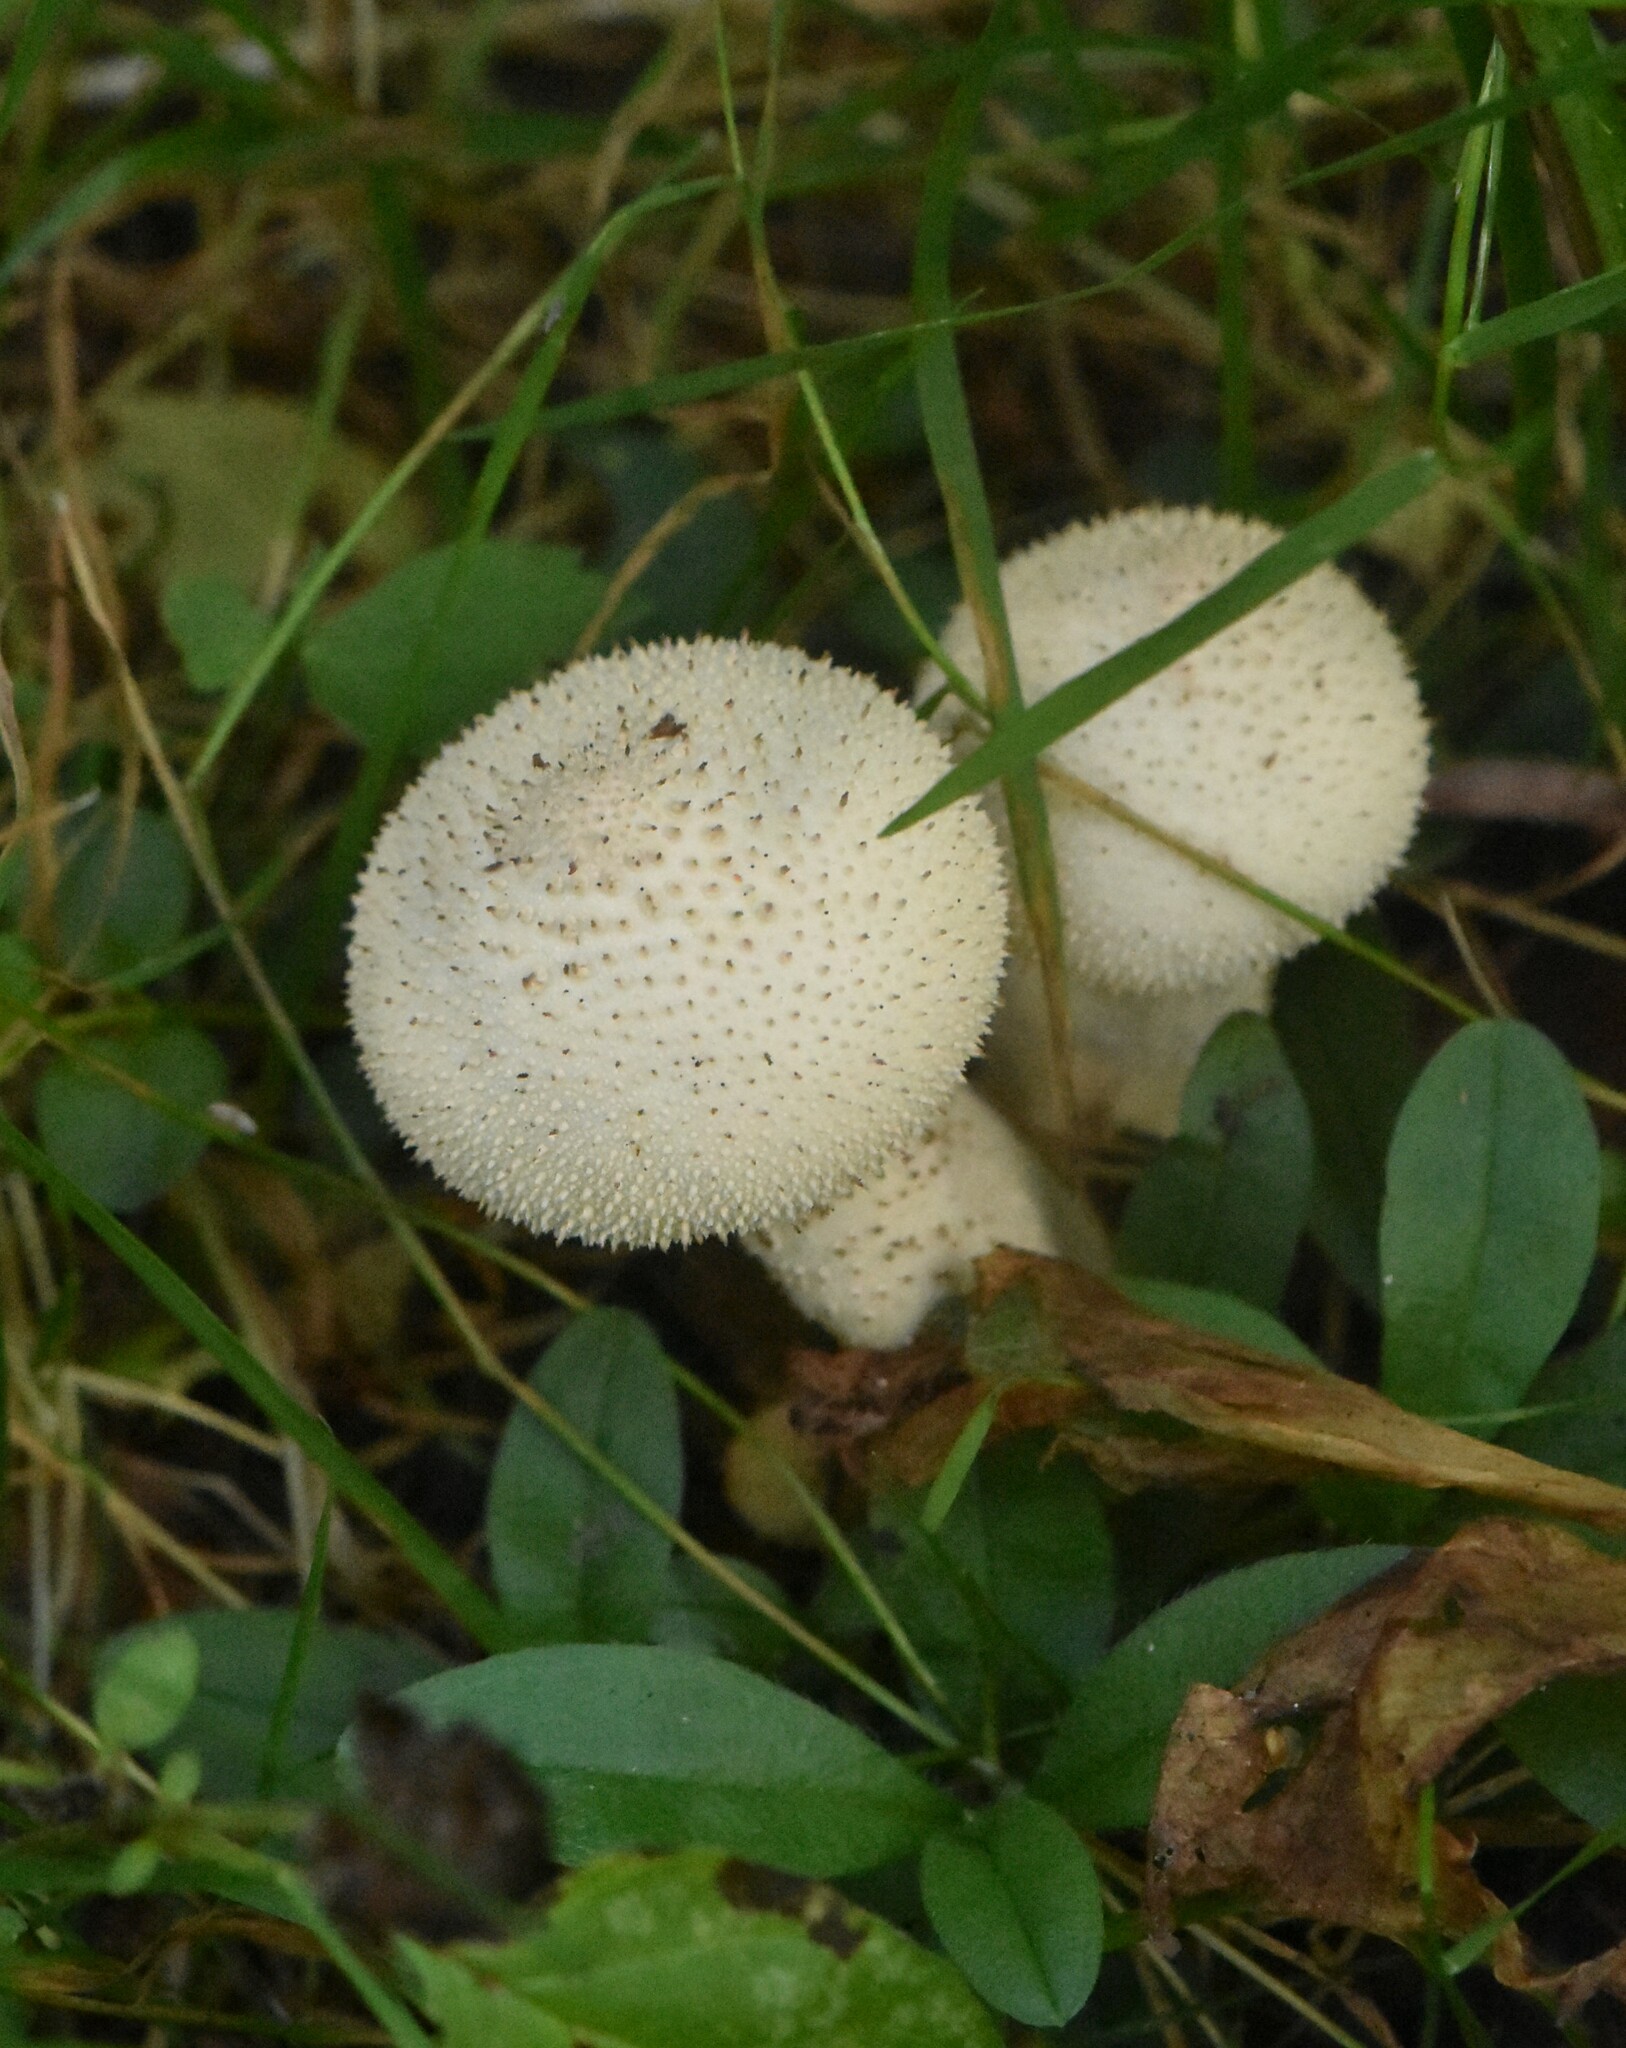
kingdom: Fungi
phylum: Basidiomycota
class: Agaricomycetes
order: Agaricales
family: Lycoperdaceae
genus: Lycoperdon
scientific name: Lycoperdon perlatum
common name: Common puffball
